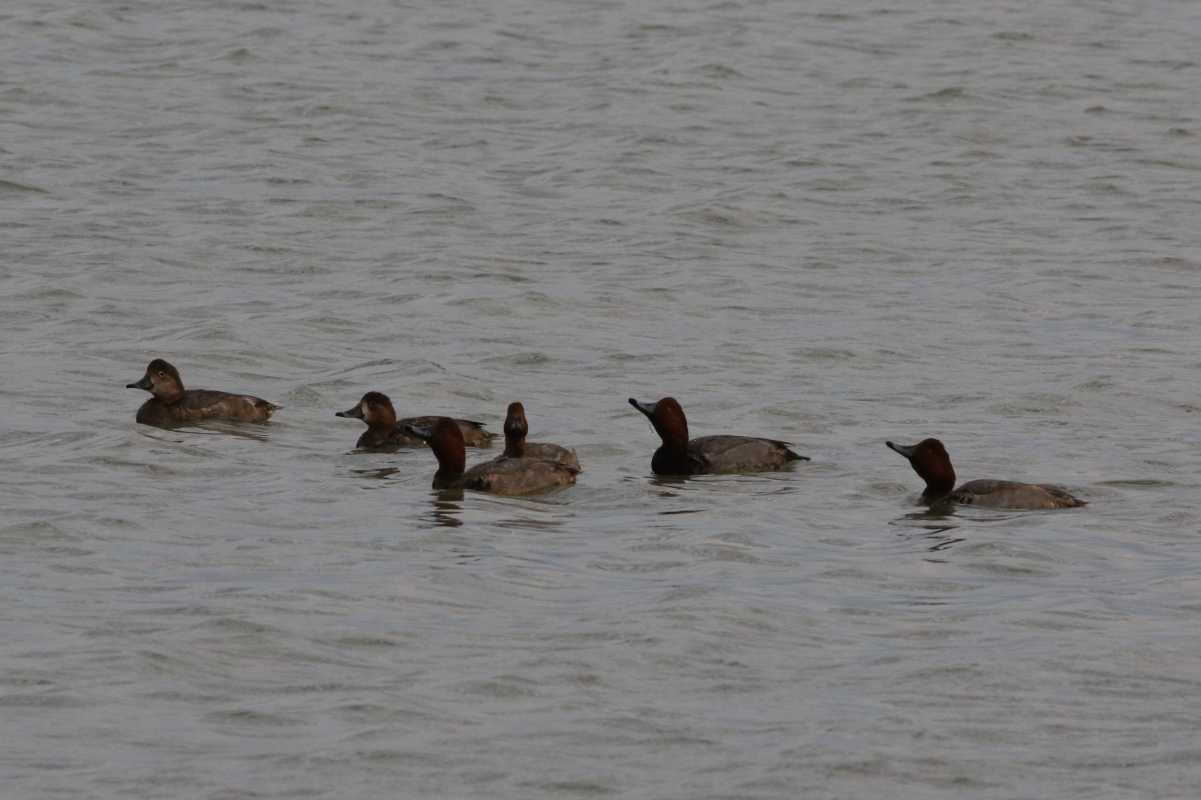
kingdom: Animalia
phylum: Chordata
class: Aves
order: Anseriformes
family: Anatidae
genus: Aythya
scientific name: Aythya americana
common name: Redhead
